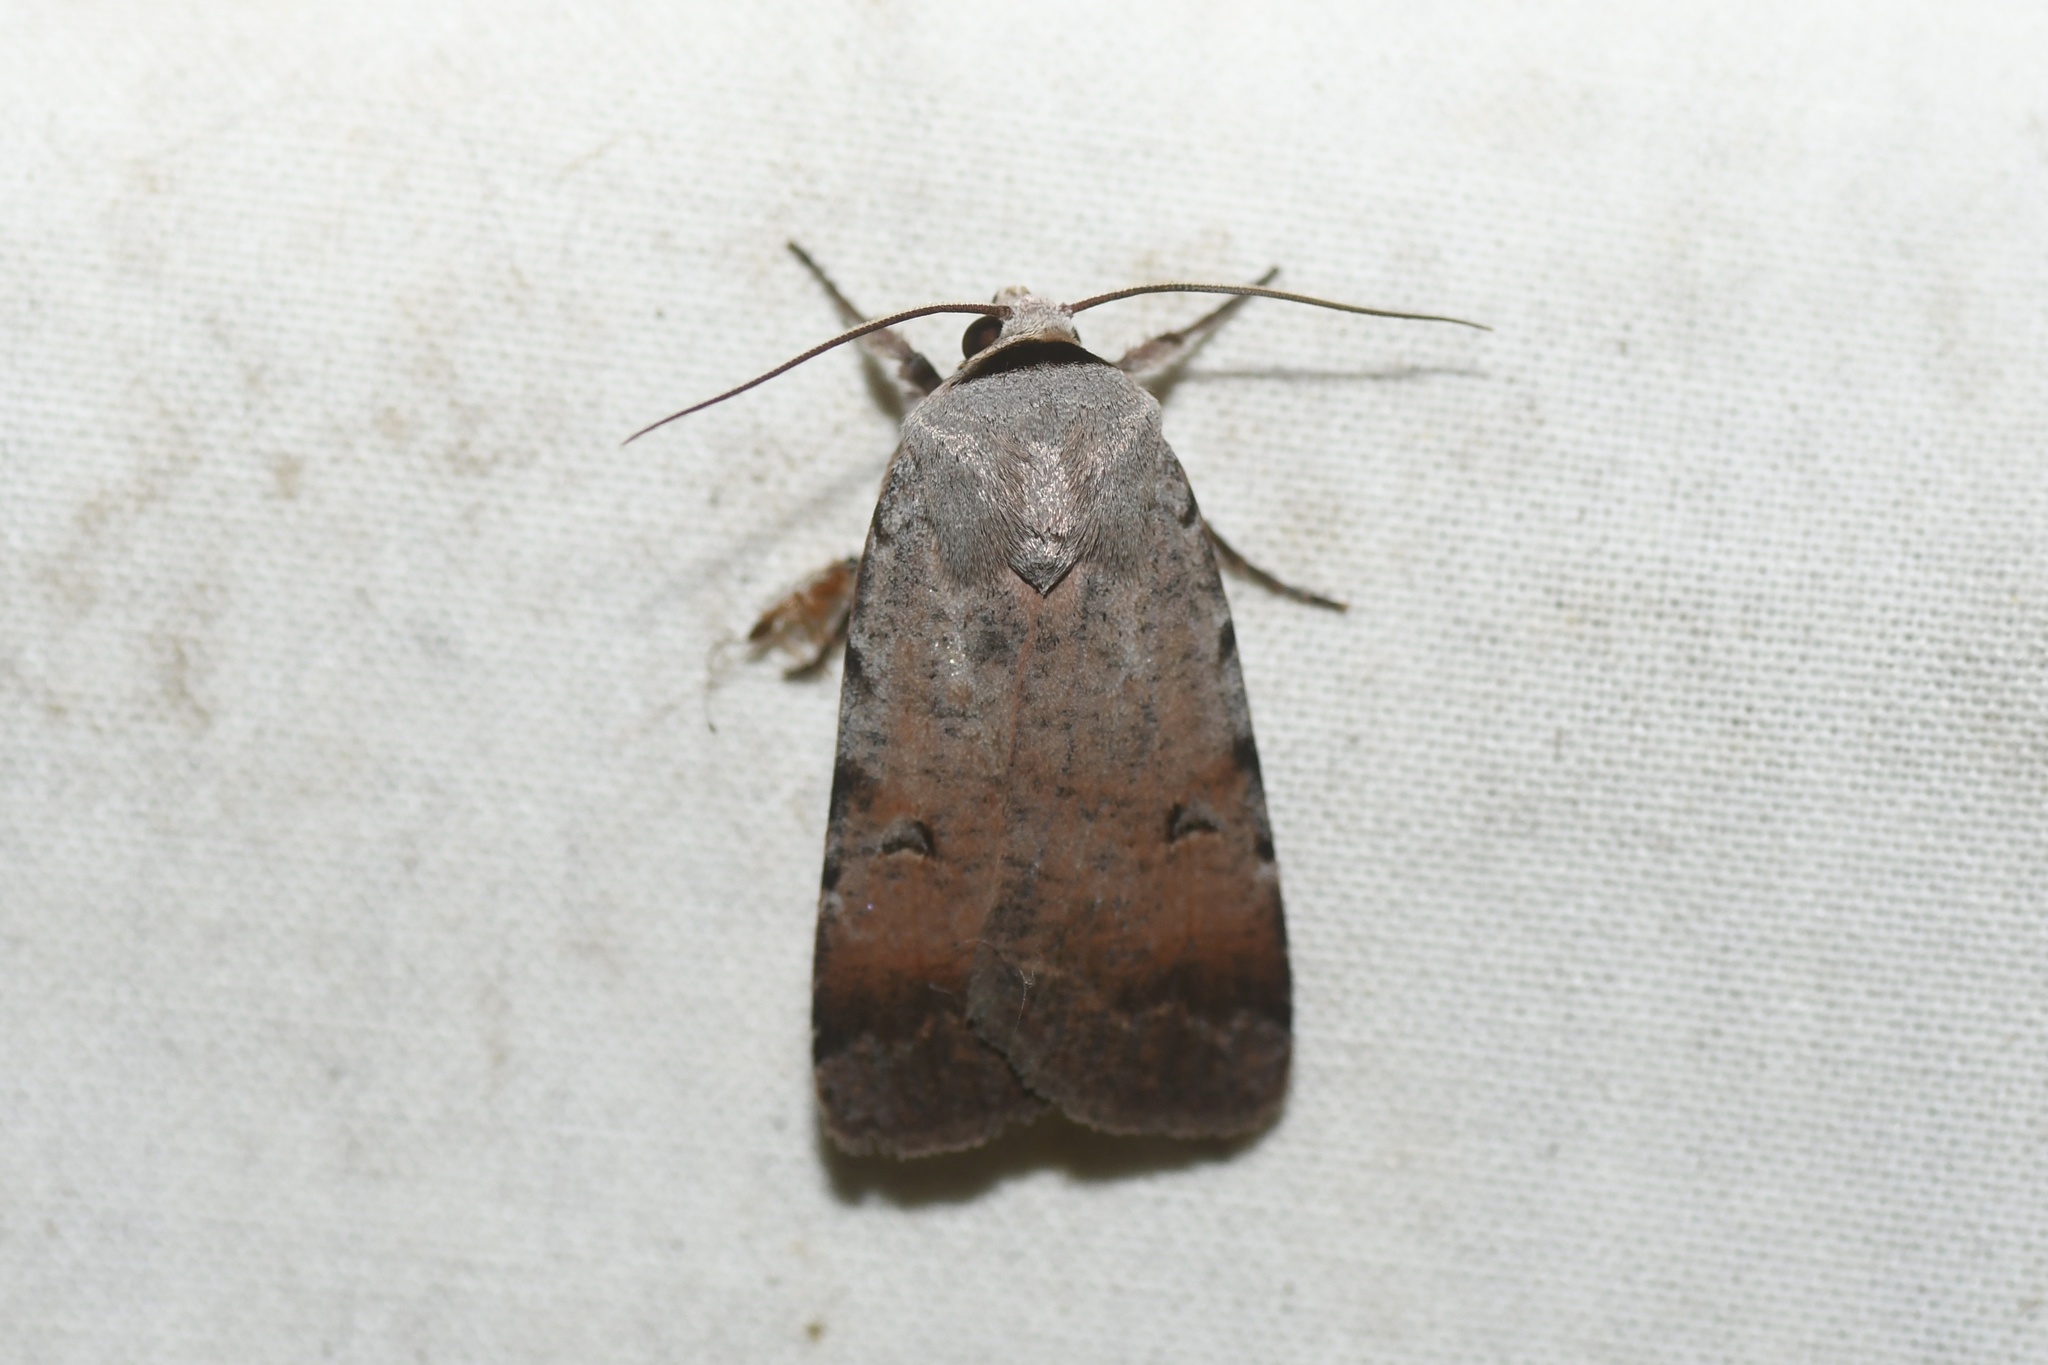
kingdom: Animalia
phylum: Arthropoda
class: Insecta
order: Lepidoptera
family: Noctuidae
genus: Anicla
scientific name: Anicla illapsa
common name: Snowy dart
